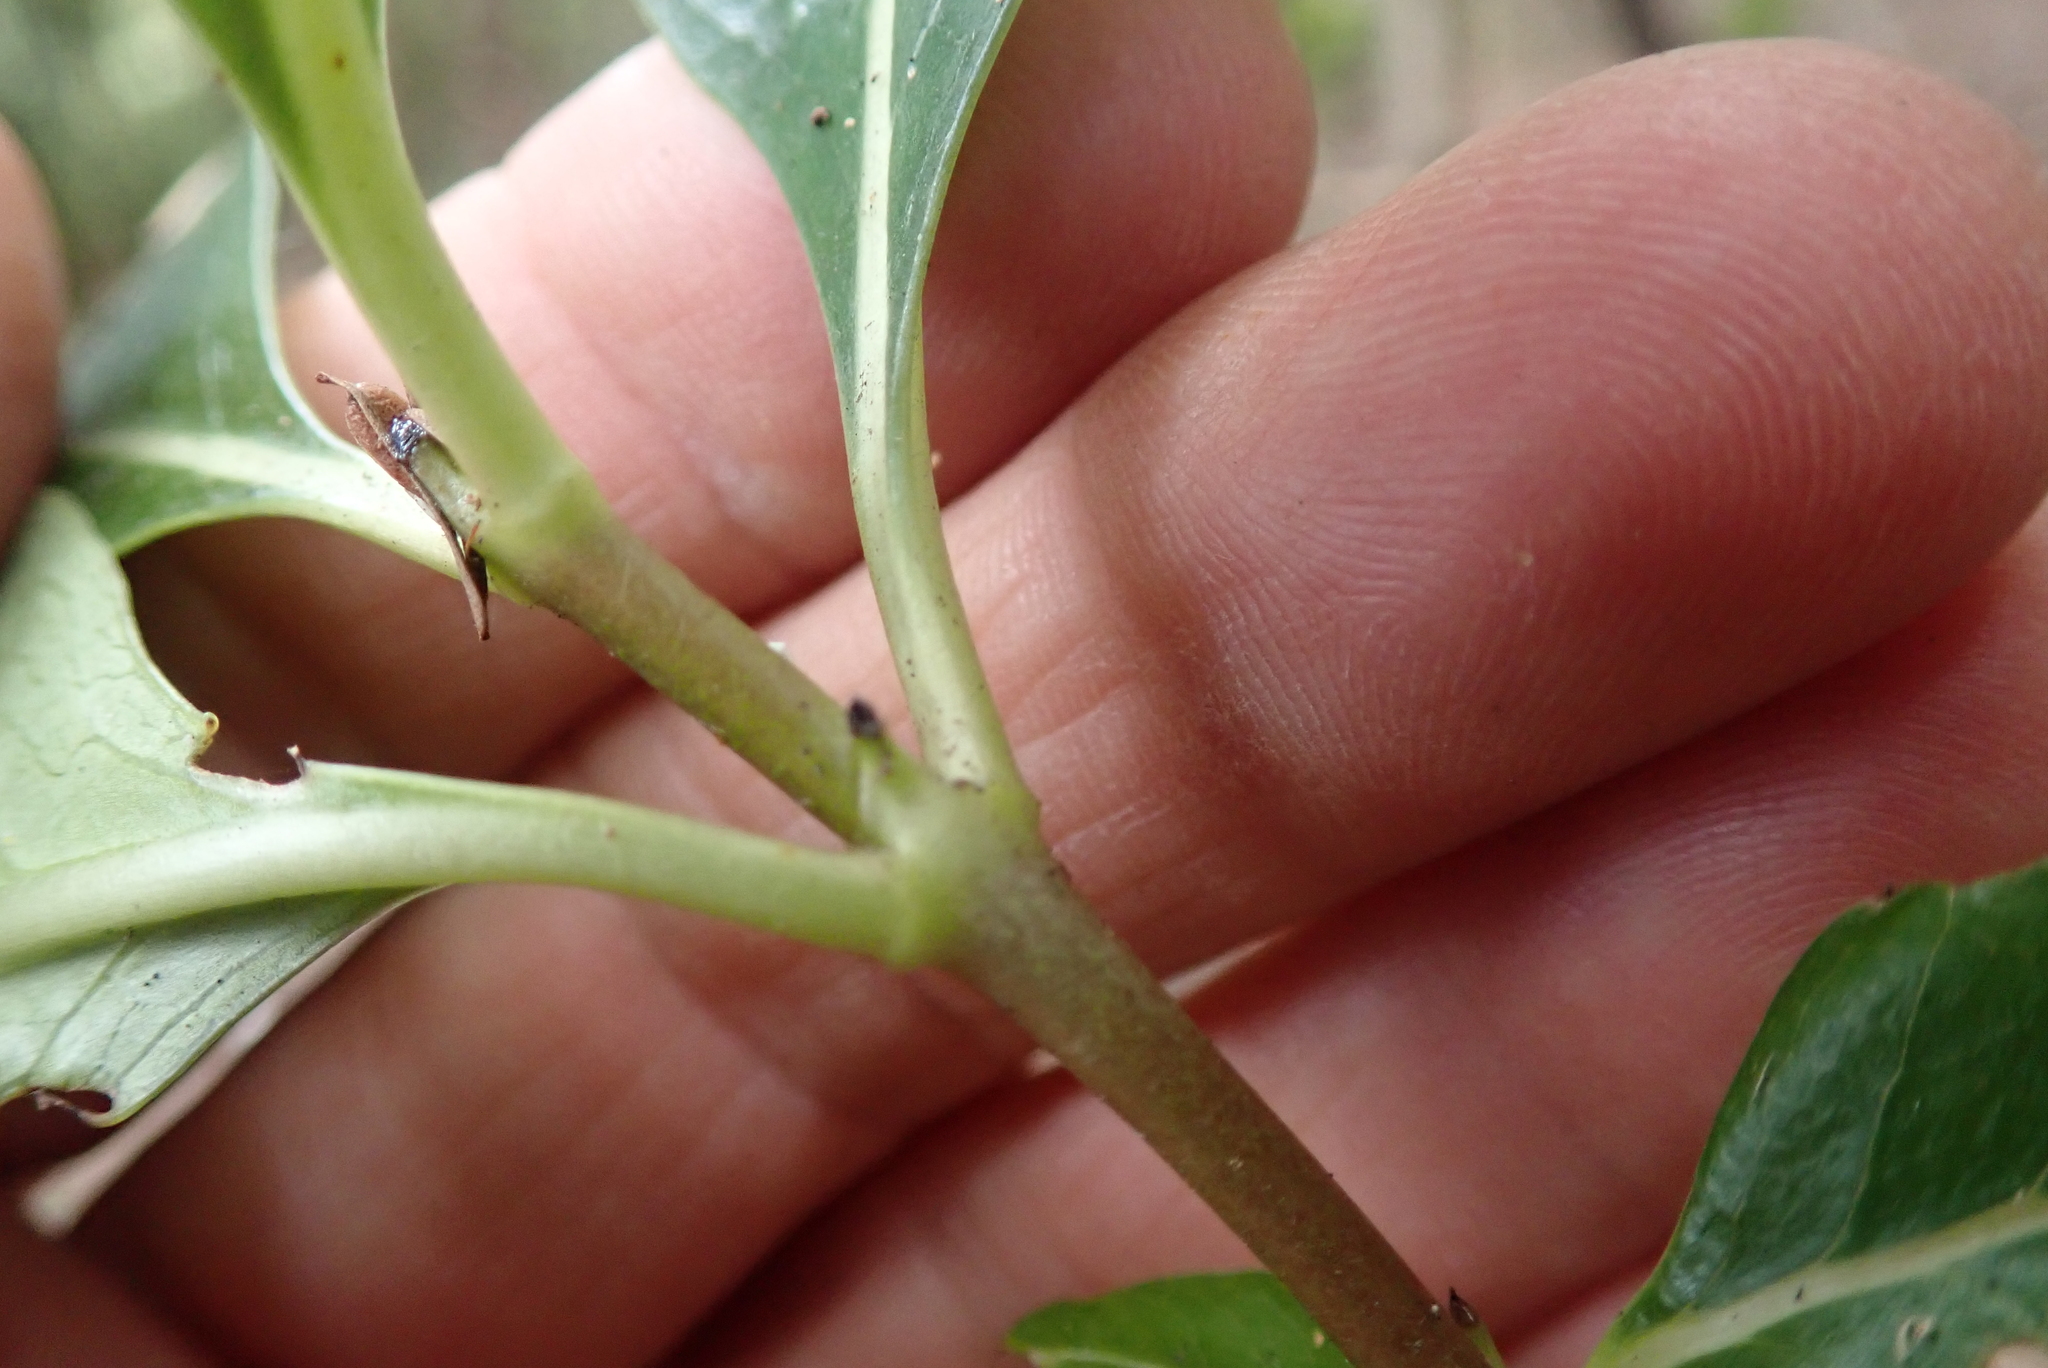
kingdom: Plantae
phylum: Tracheophyta
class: Magnoliopsida
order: Gentianales
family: Rubiaceae
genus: Coprosma
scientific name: Coprosma lucida
